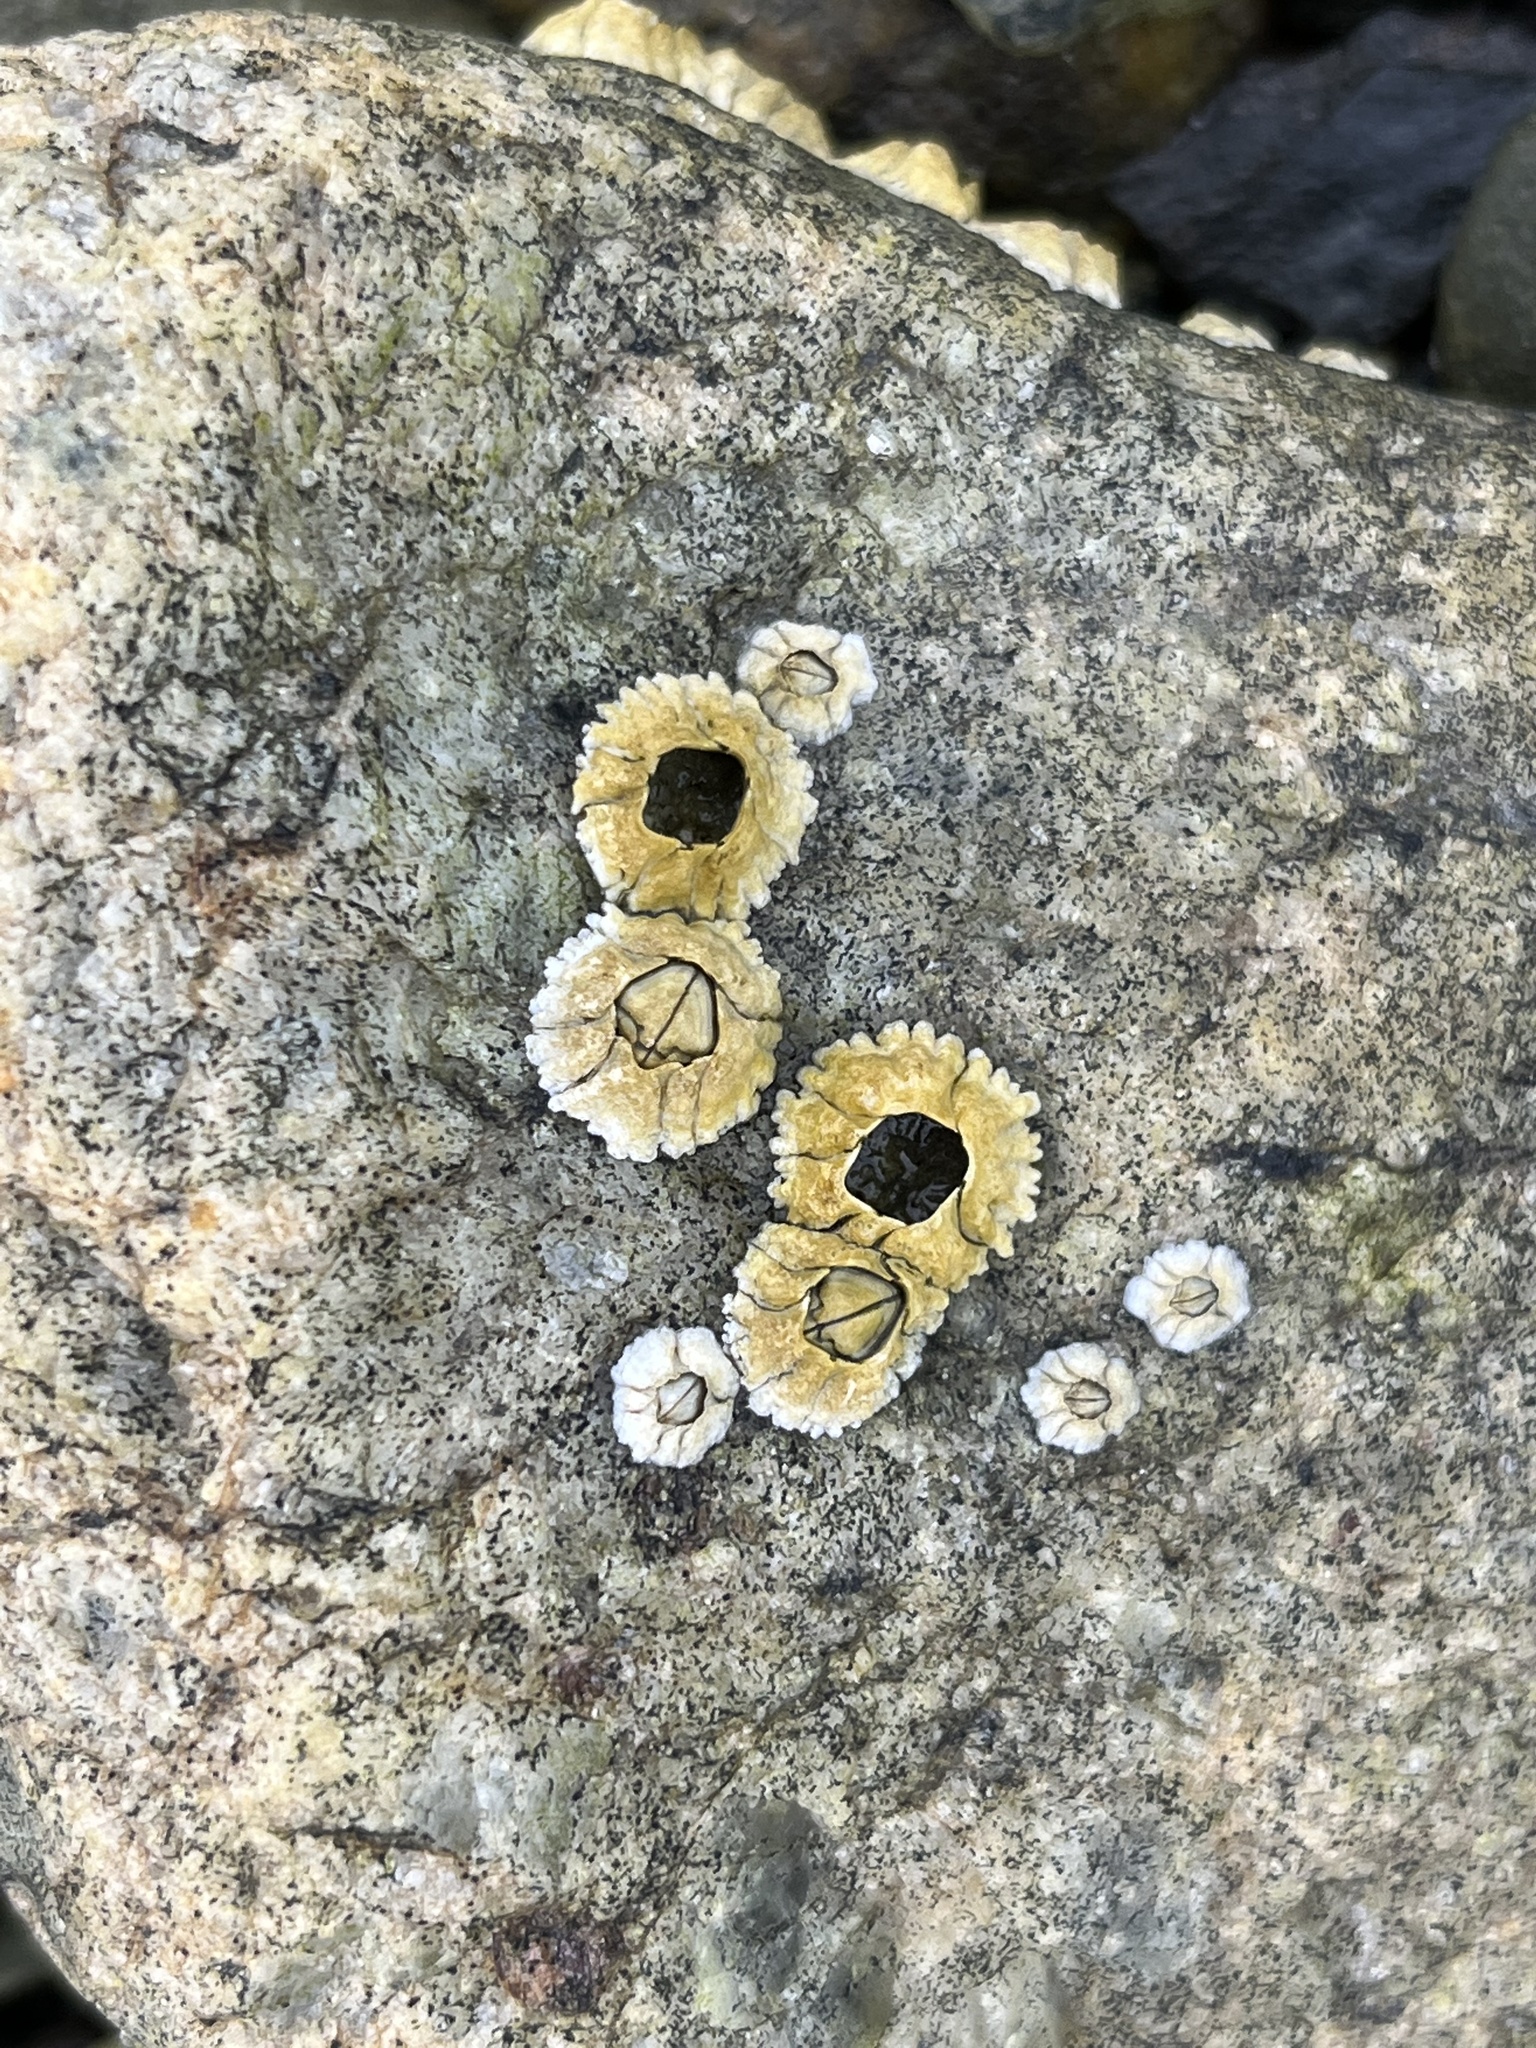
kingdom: Animalia
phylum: Arthropoda
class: Maxillopoda
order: Sessilia
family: Archaeobalanidae
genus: Semibalanus
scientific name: Semibalanus balanoides
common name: Acorn barnacle
